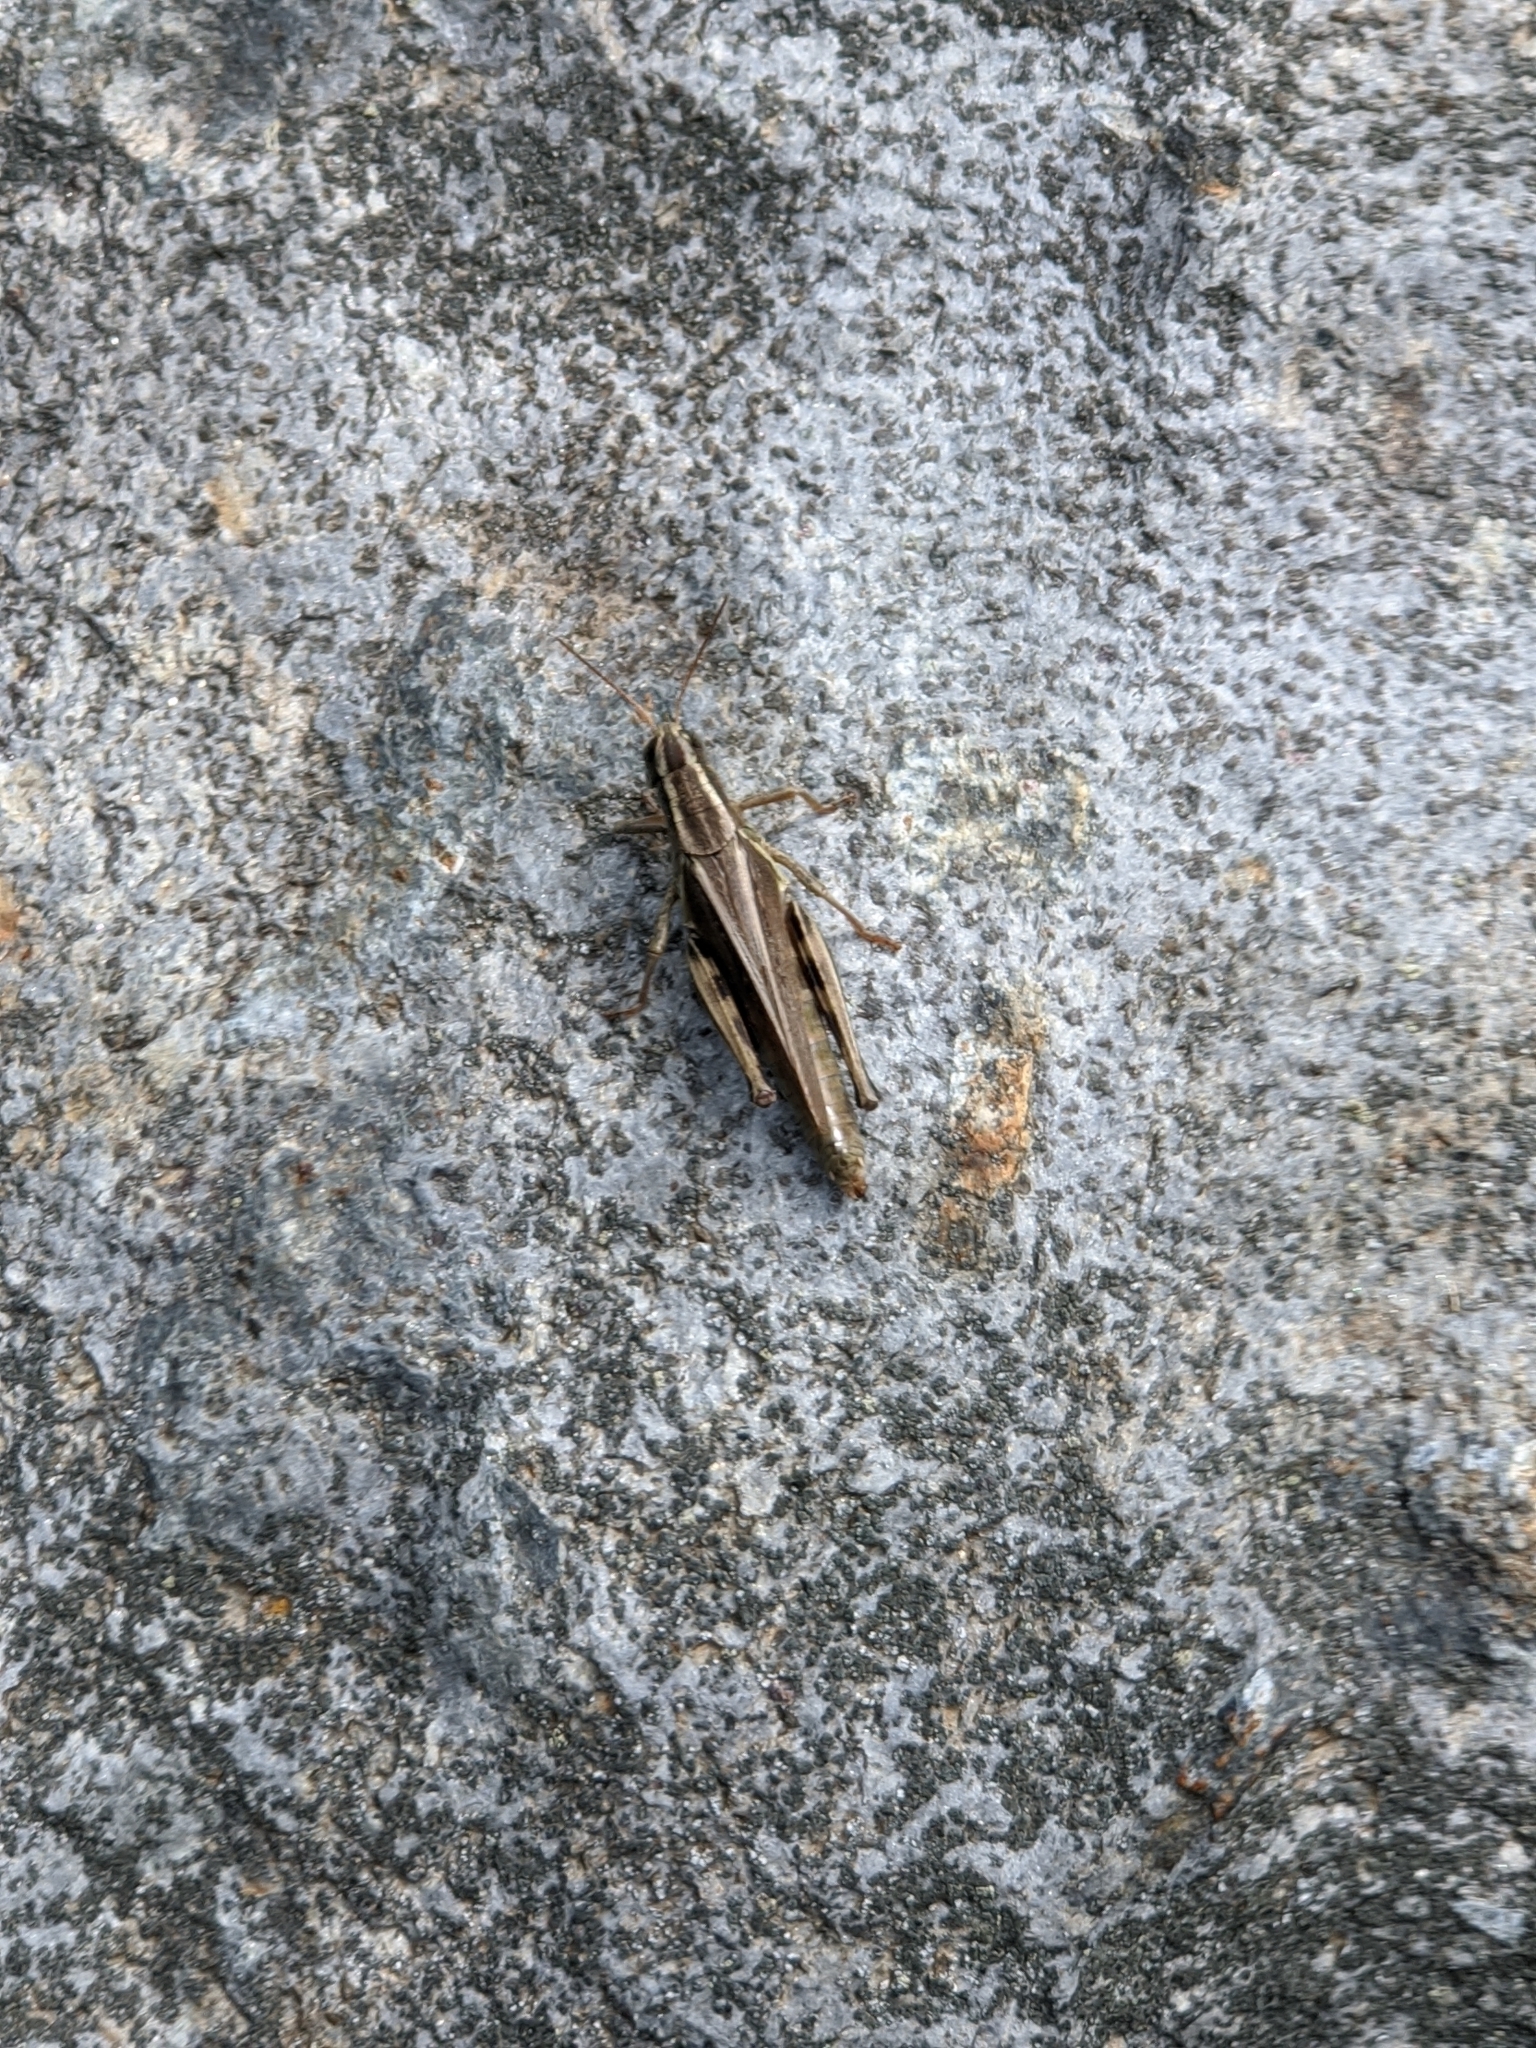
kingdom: Animalia
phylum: Arthropoda
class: Insecta
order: Orthoptera
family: Acrididae
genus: Melanoplus
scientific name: Melanoplus bivittatus
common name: Two-striped grasshopper
